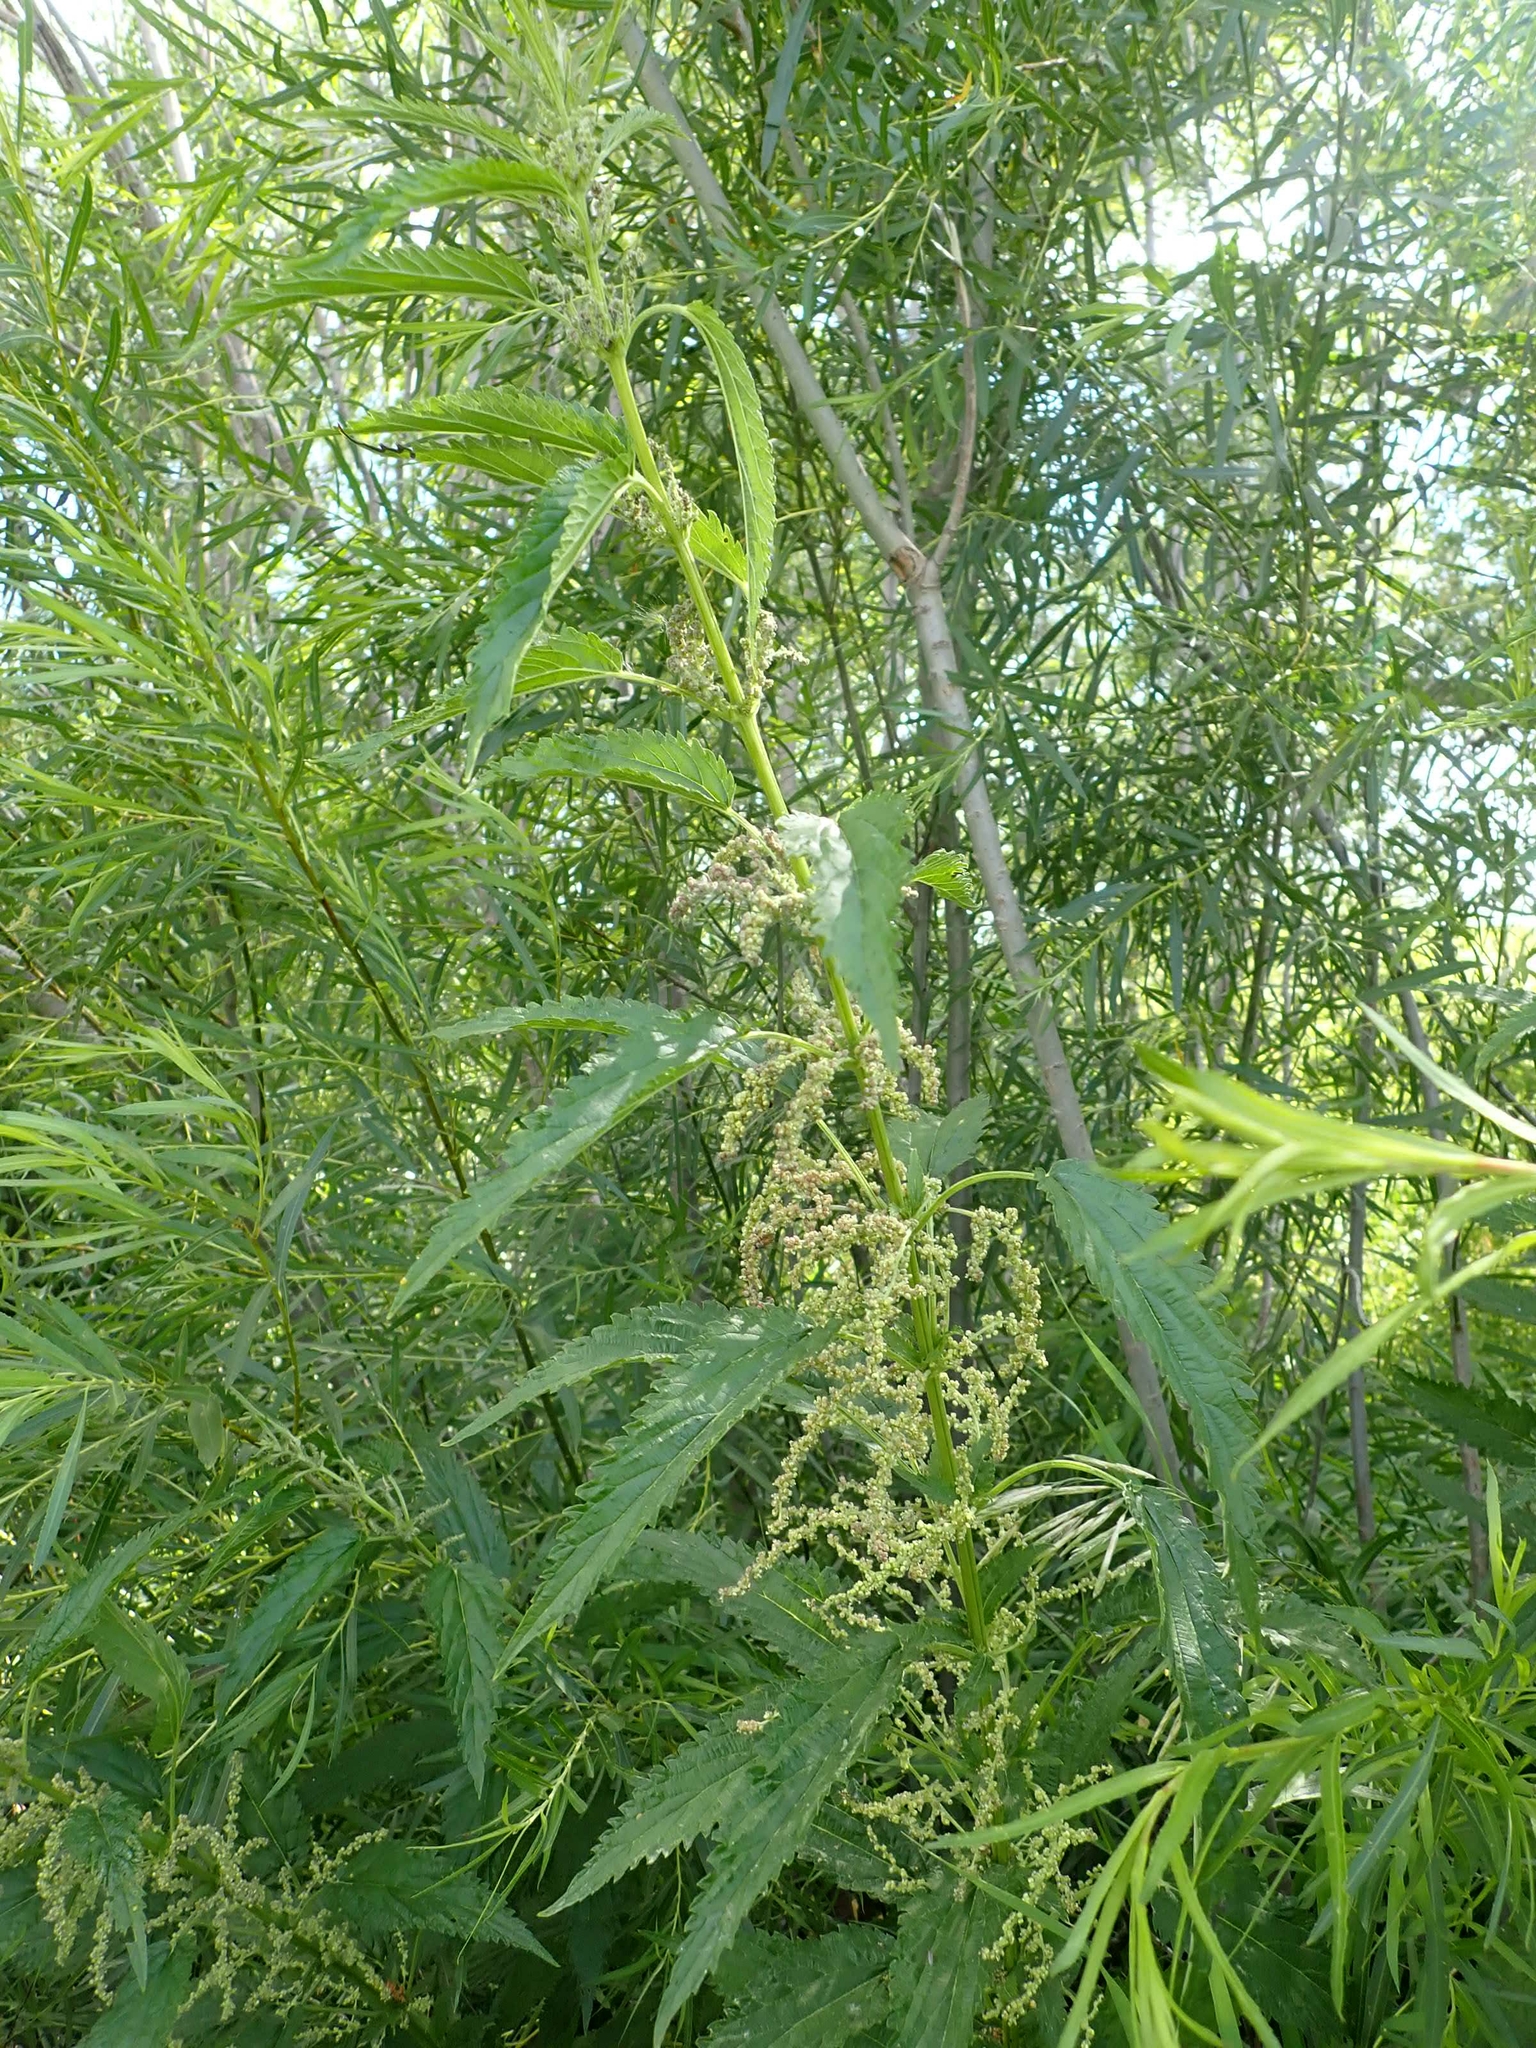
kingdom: Plantae
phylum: Tracheophyta
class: Magnoliopsida
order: Rosales
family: Urticaceae
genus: Urtica
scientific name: Urtica gracilis
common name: Slender stinging nettle
